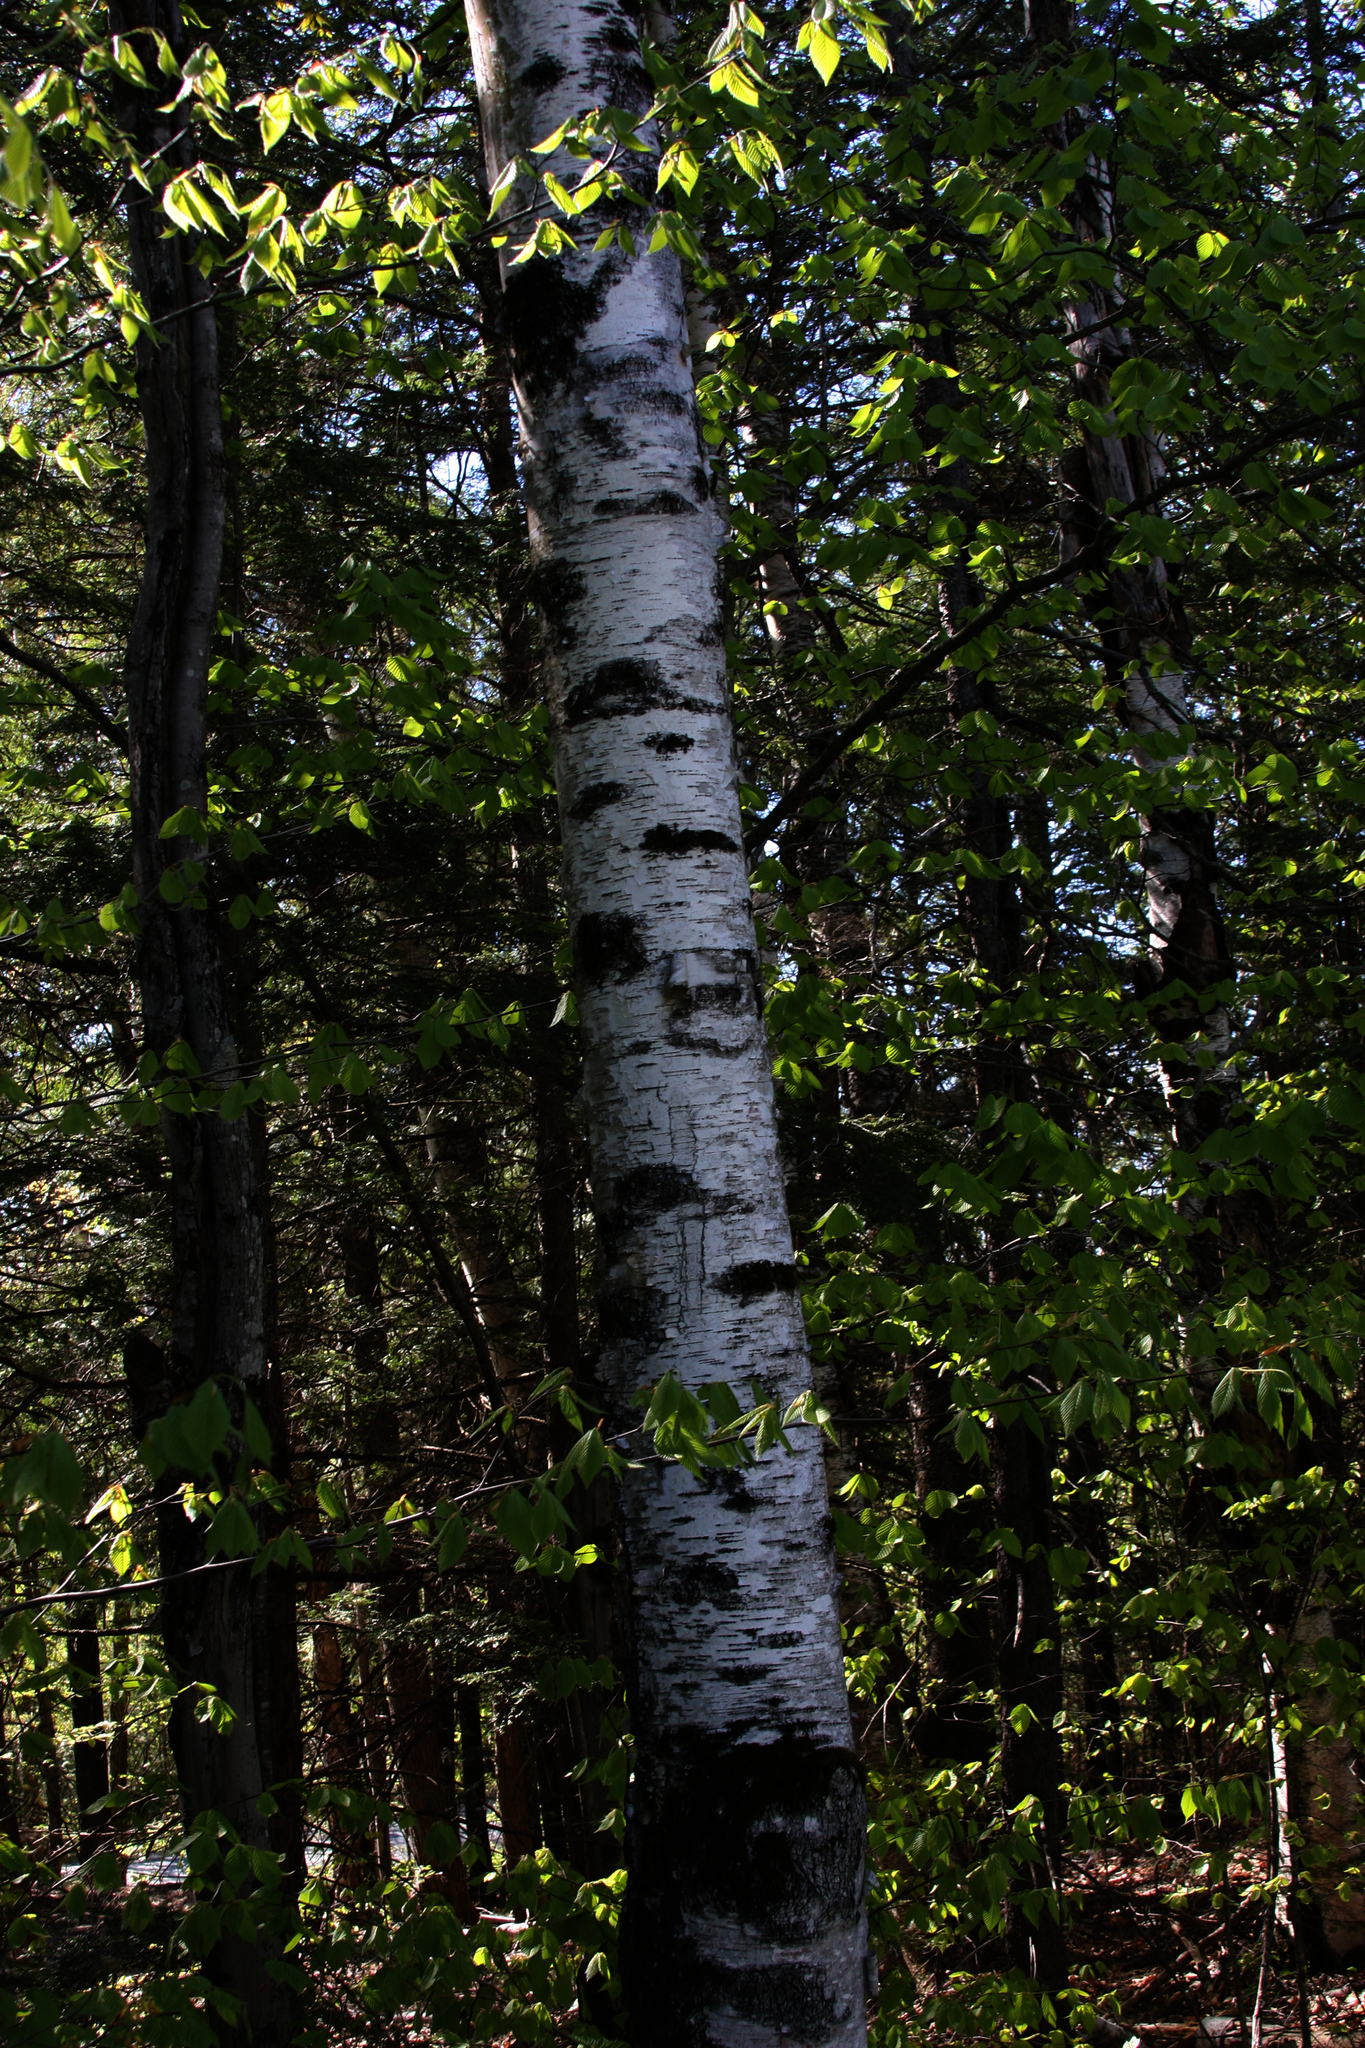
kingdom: Plantae
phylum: Tracheophyta
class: Magnoliopsida
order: Fagales
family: Betulaceae
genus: Betula
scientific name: Betula papyrifera
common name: Paper birch
